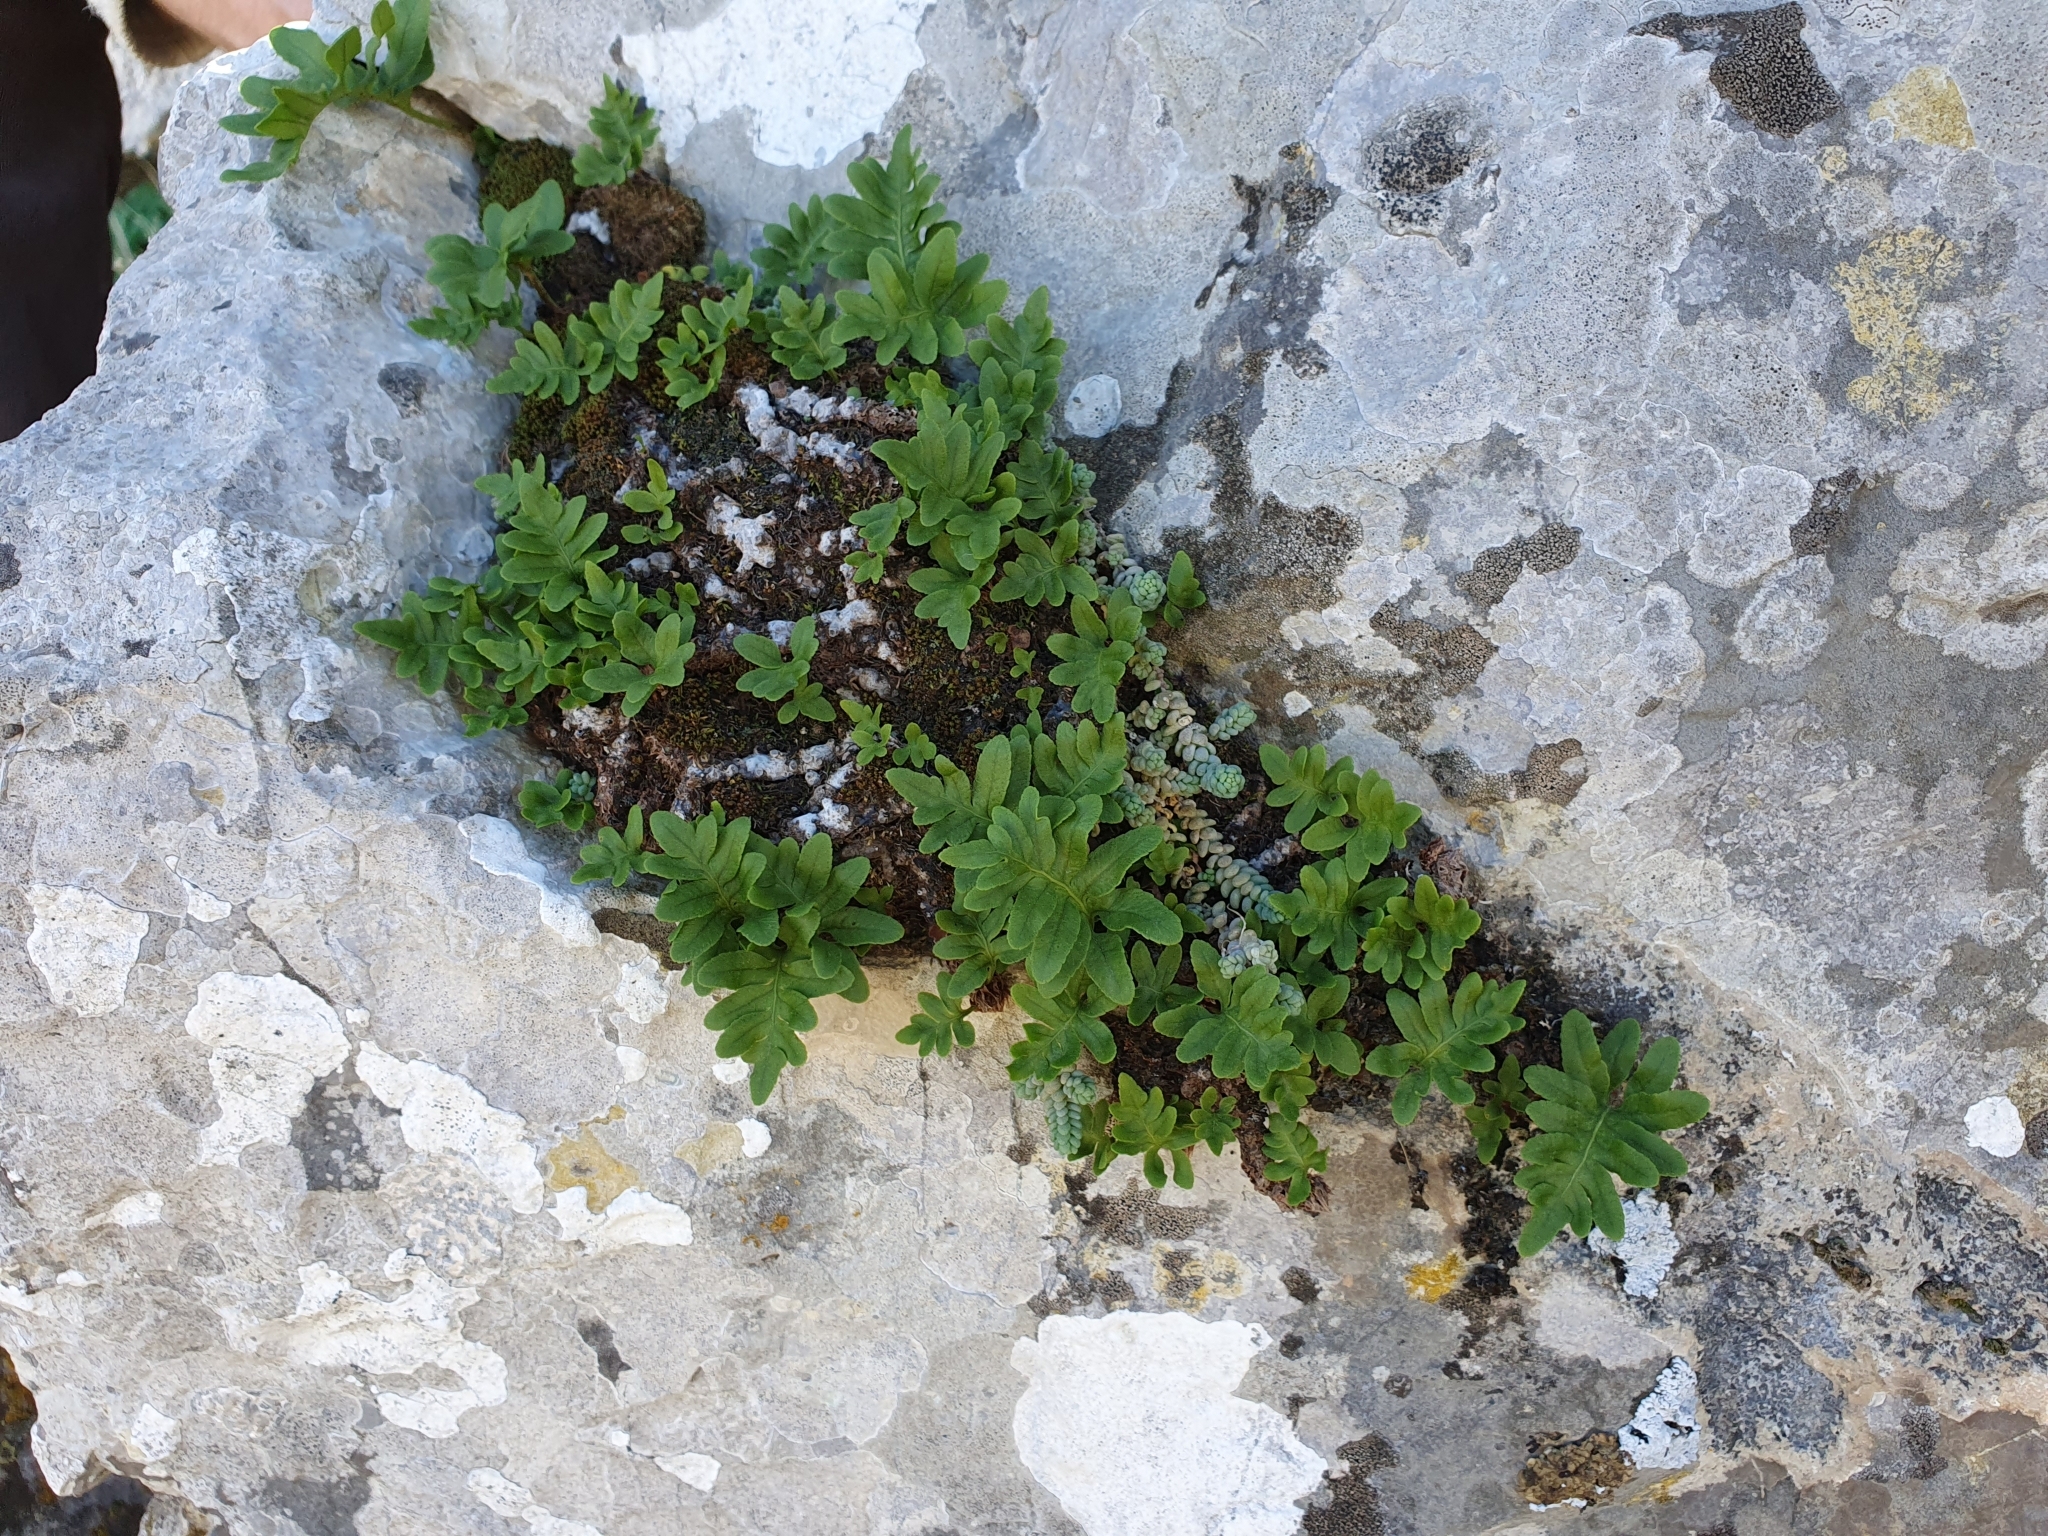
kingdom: Plantae
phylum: Tracheophyta
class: Polypodiopsida
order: Polypodiales
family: Polypodiaceae
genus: Polypodium
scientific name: Polypodium cambricum
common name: Southern polypody
